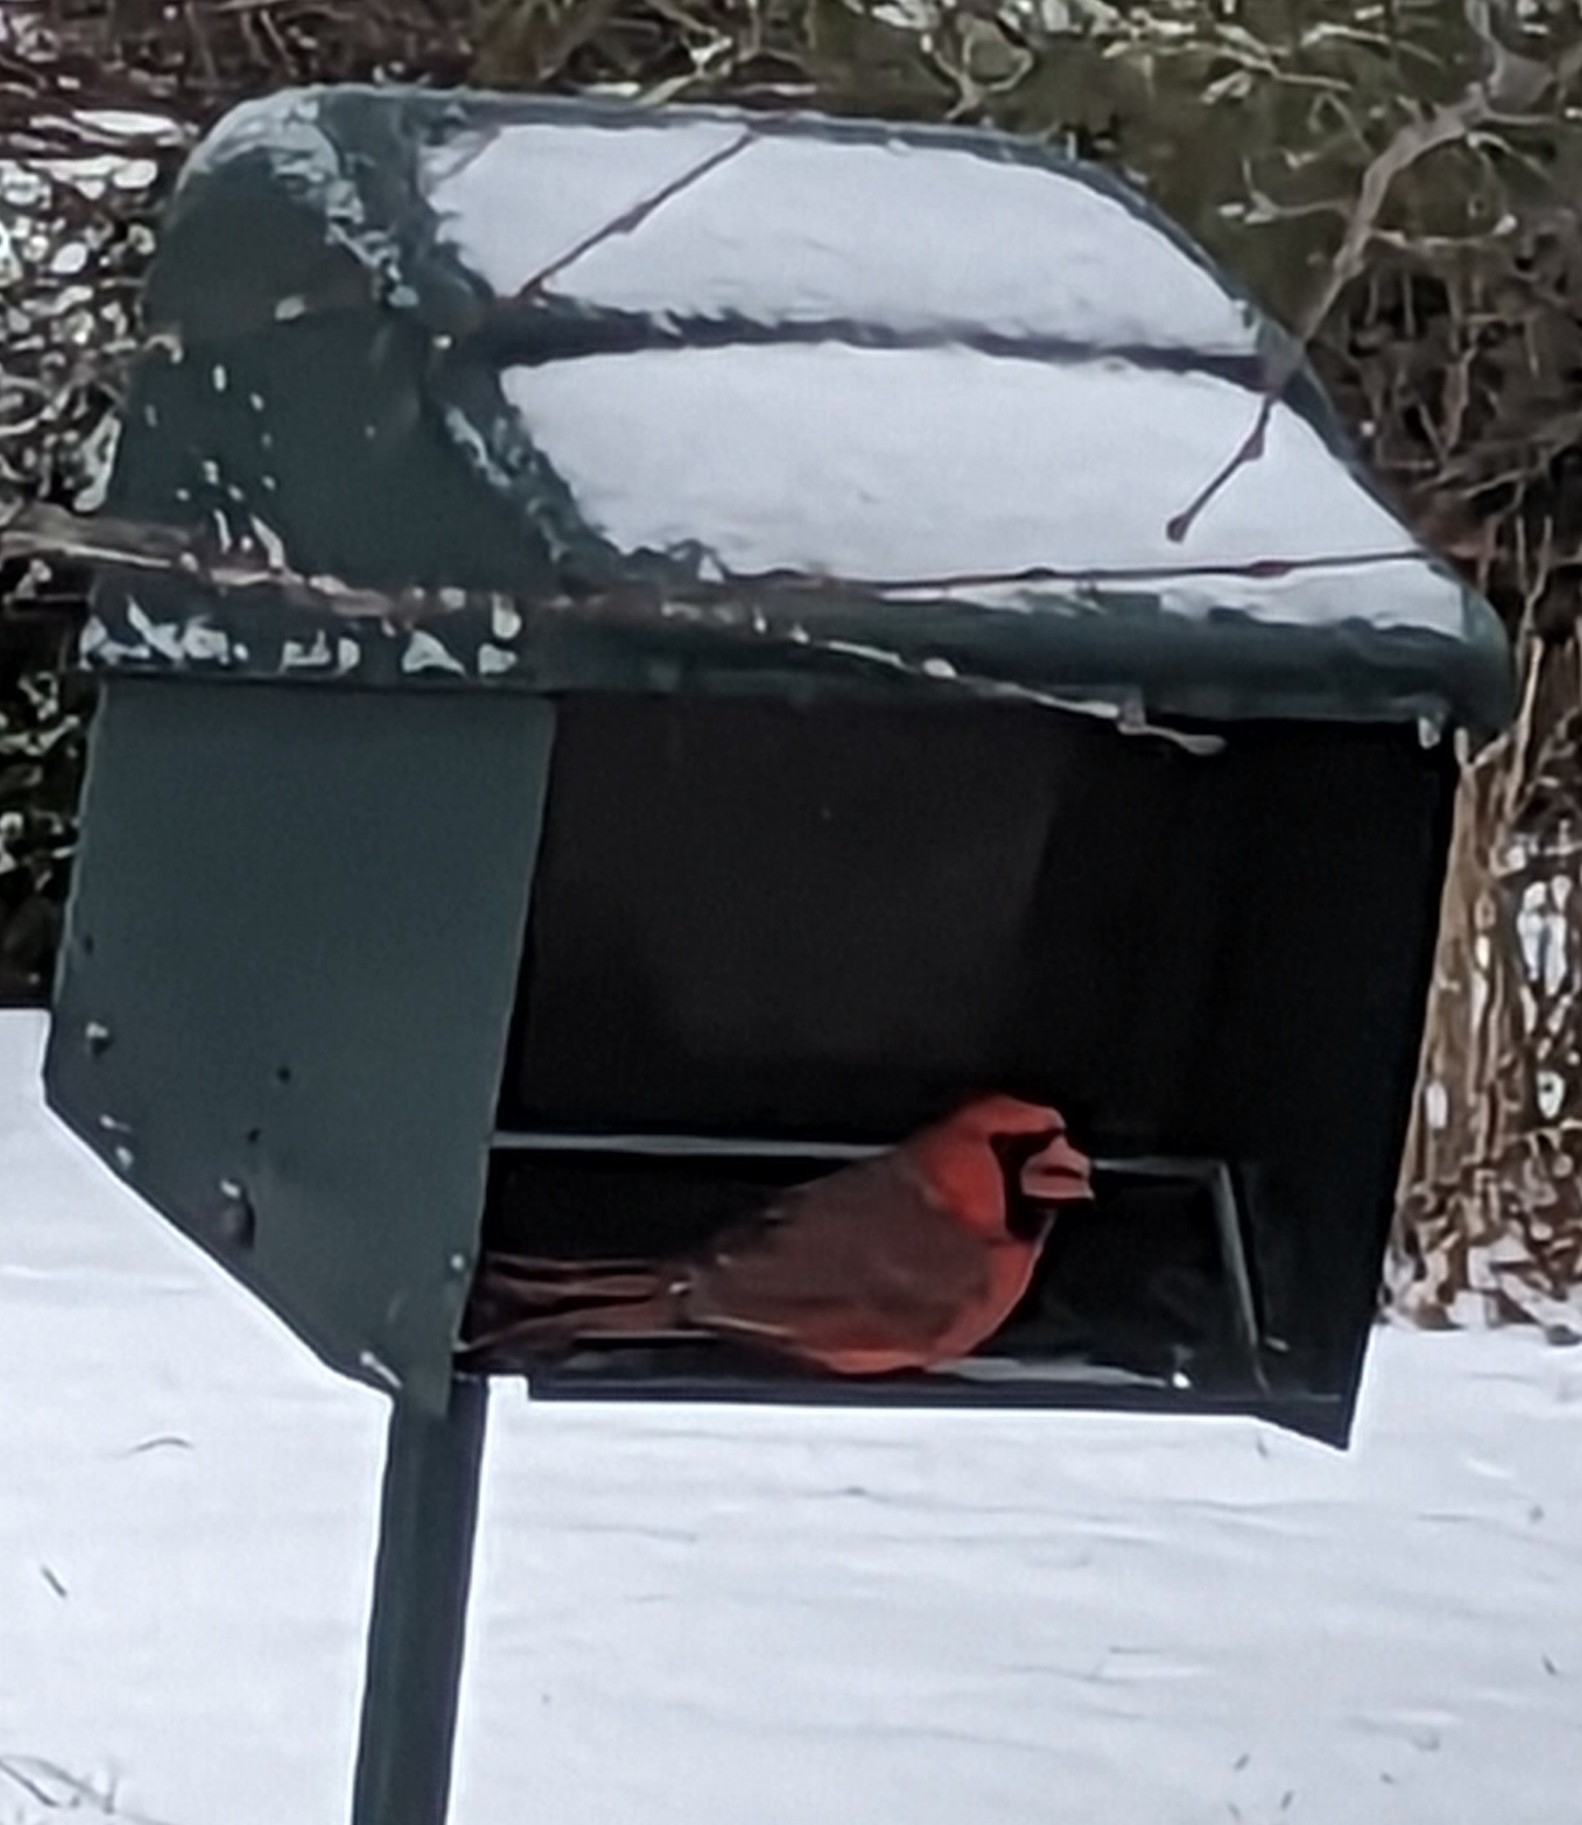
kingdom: Animalia
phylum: Chordata
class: Aves
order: Passeriformes
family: Cardinalidae
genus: Cardinalis
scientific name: Cardinalis cardinalis
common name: Northern cardinal
